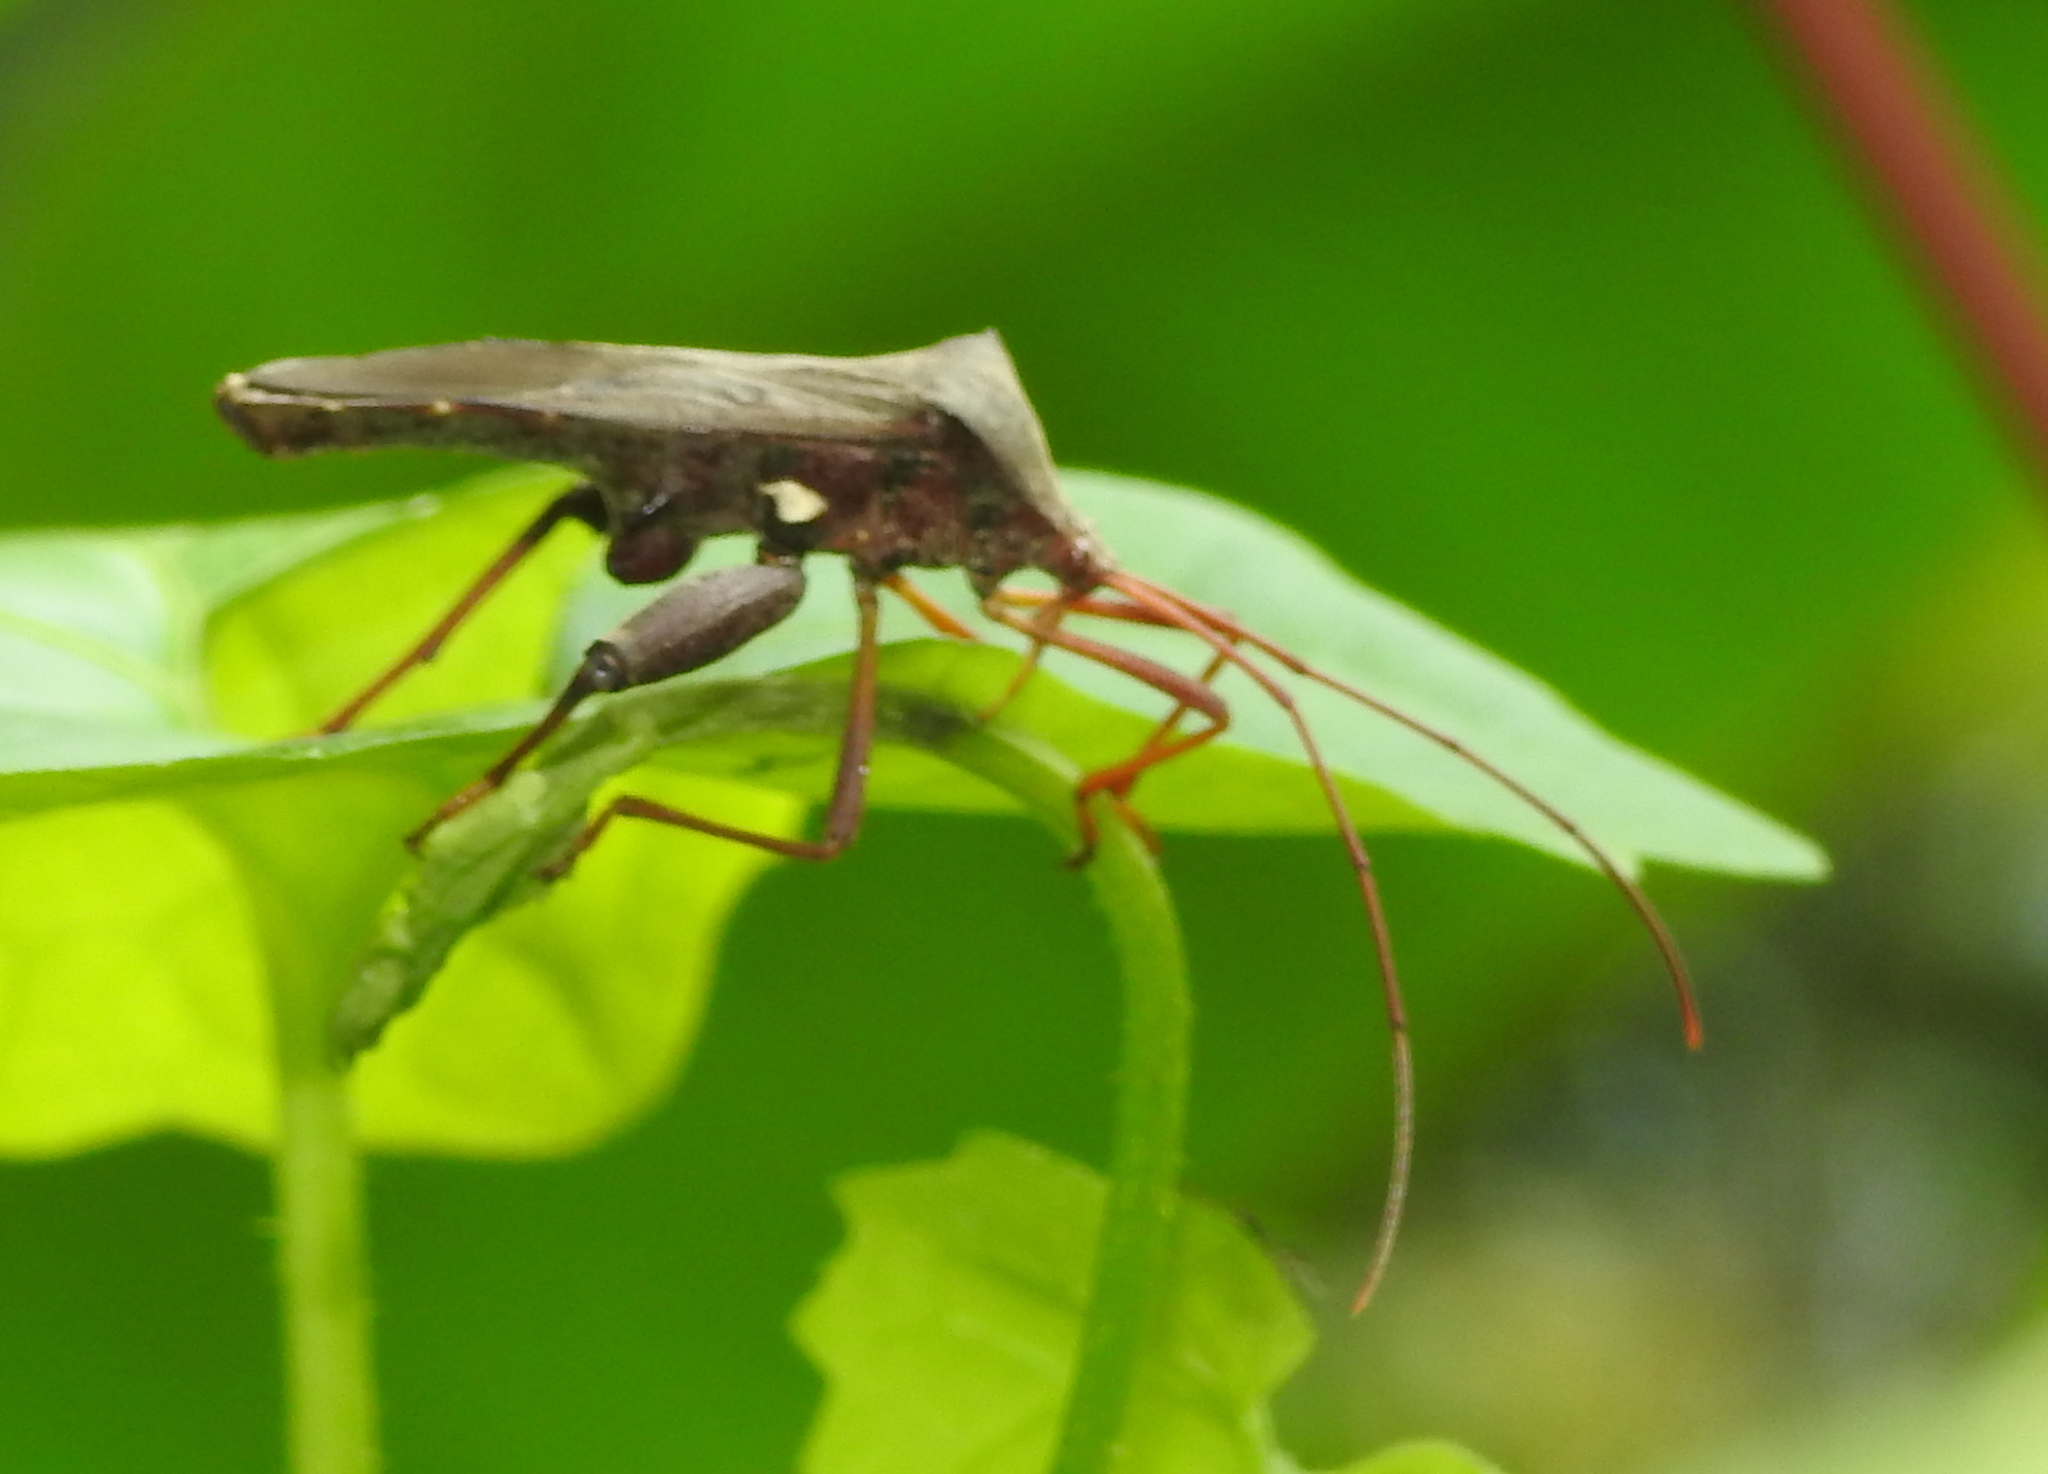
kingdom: Animalia
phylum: Arthropoda
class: Insecta
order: Hemiptera
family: Coreidae
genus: Mictis
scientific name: Mictis longicornis
